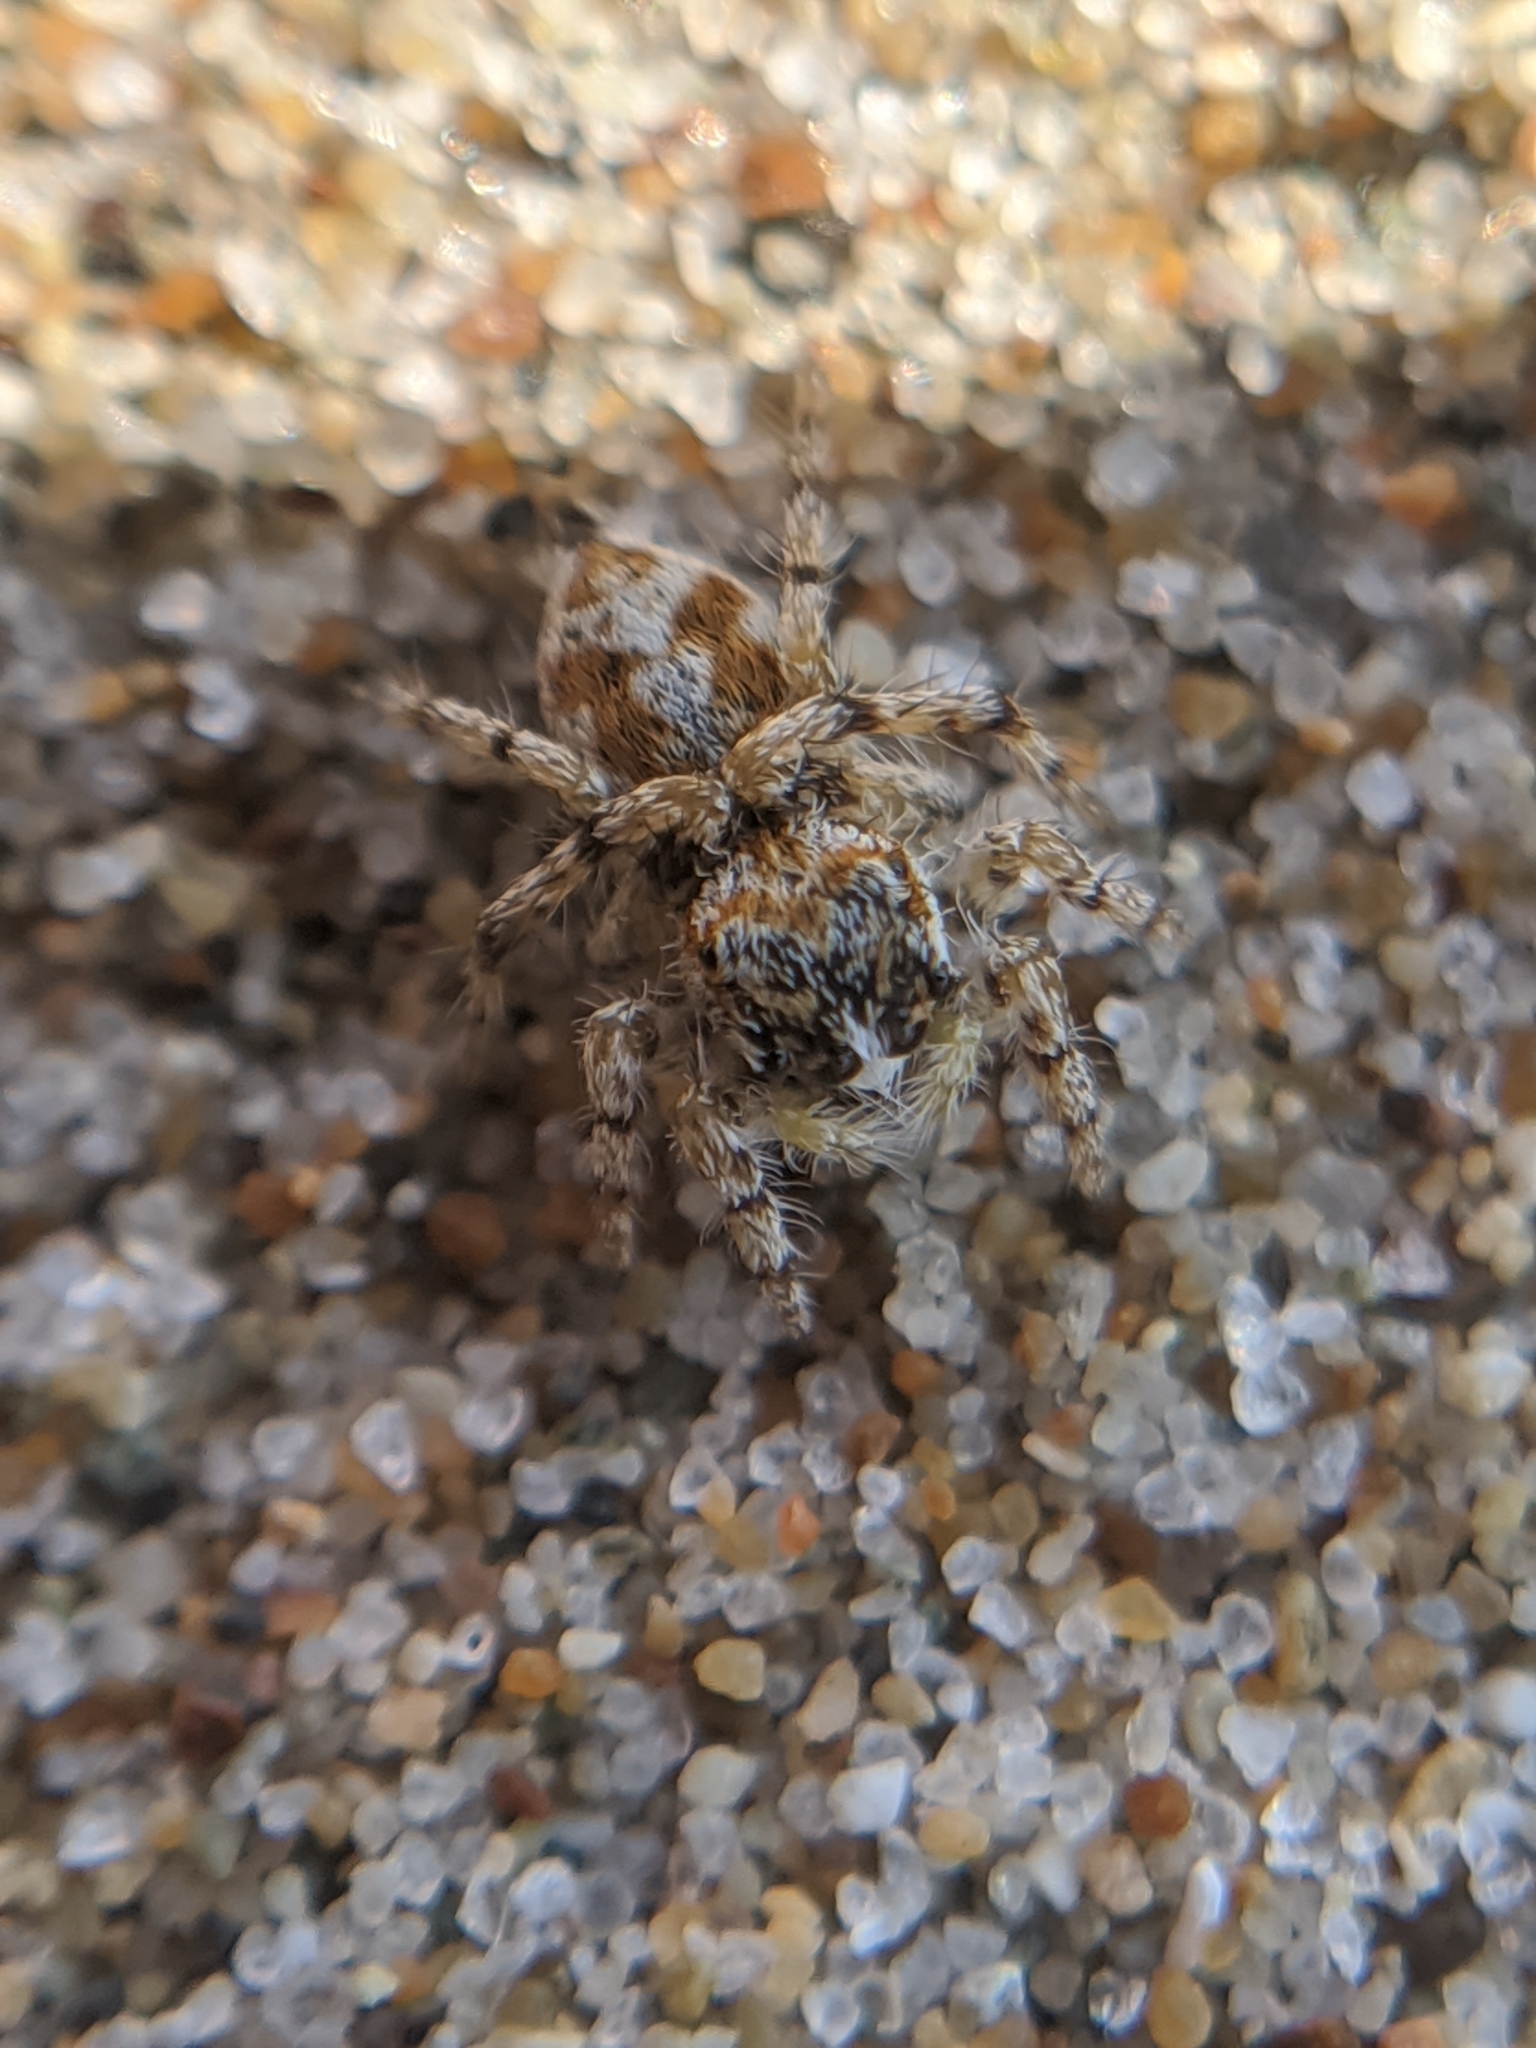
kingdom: Animalia
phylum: Arthropoda
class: Arachnida
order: Araneae
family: Salticidae
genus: Habronattus
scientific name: Habronattus amicus
